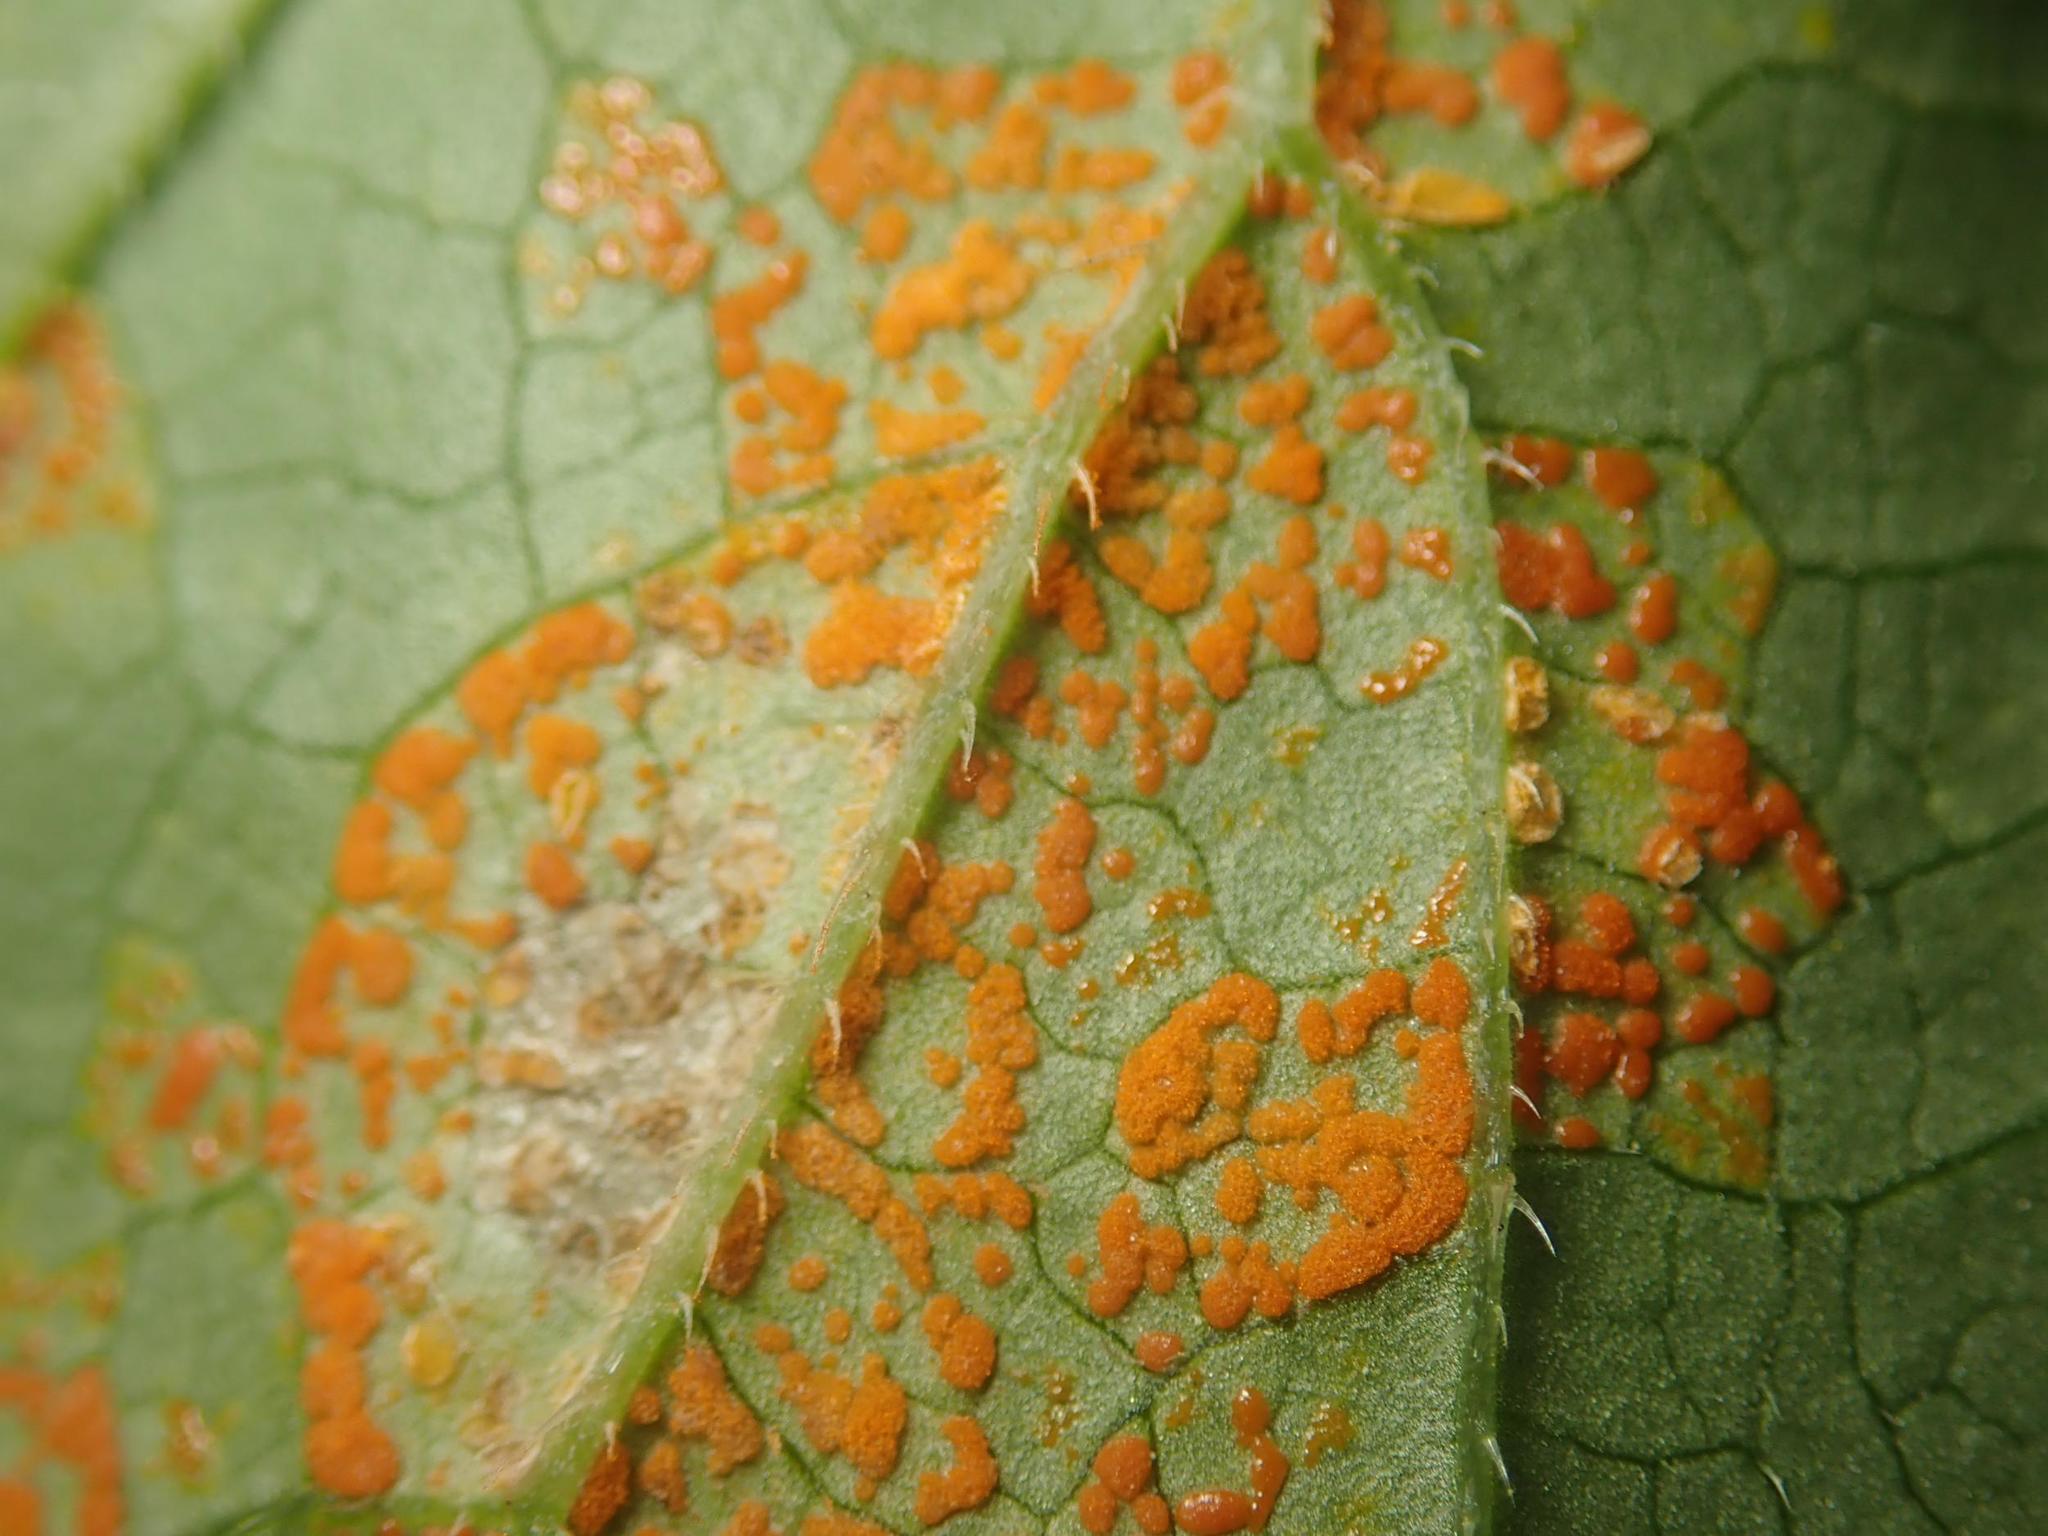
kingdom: Fungi
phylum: Basidiomycota
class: Pucciniomycetes
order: Pucciniales
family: Coleosporiaceae
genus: Coleosporium
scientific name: Coleosporium campanulae
